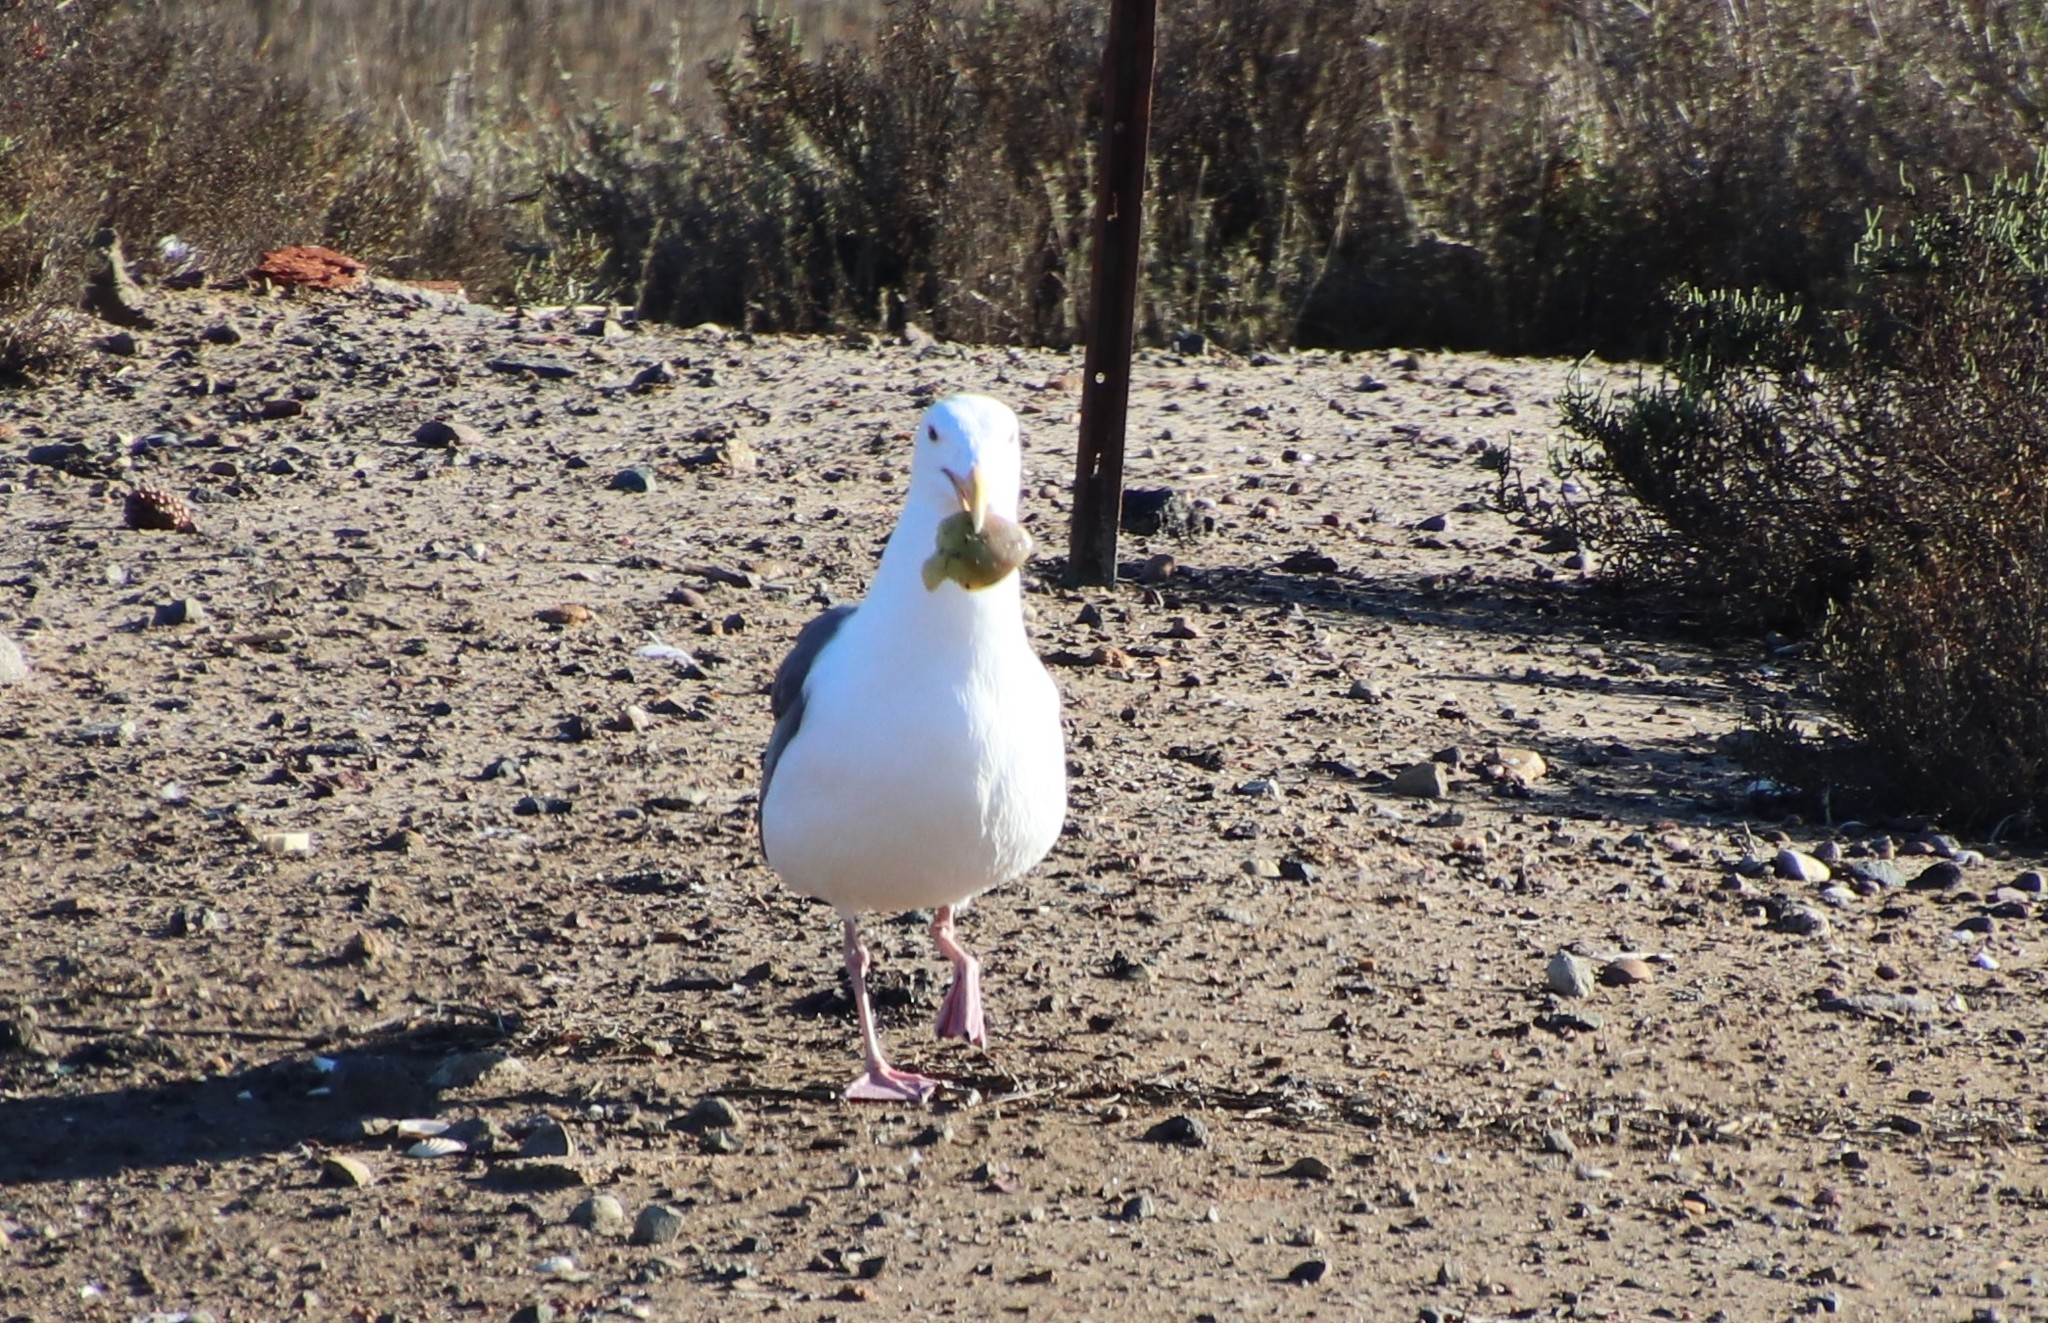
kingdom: Animalia
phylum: Chordata
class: Aves
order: Charadriiformes
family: Laridae
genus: Larus
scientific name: Larus occidentalis
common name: Western gull
